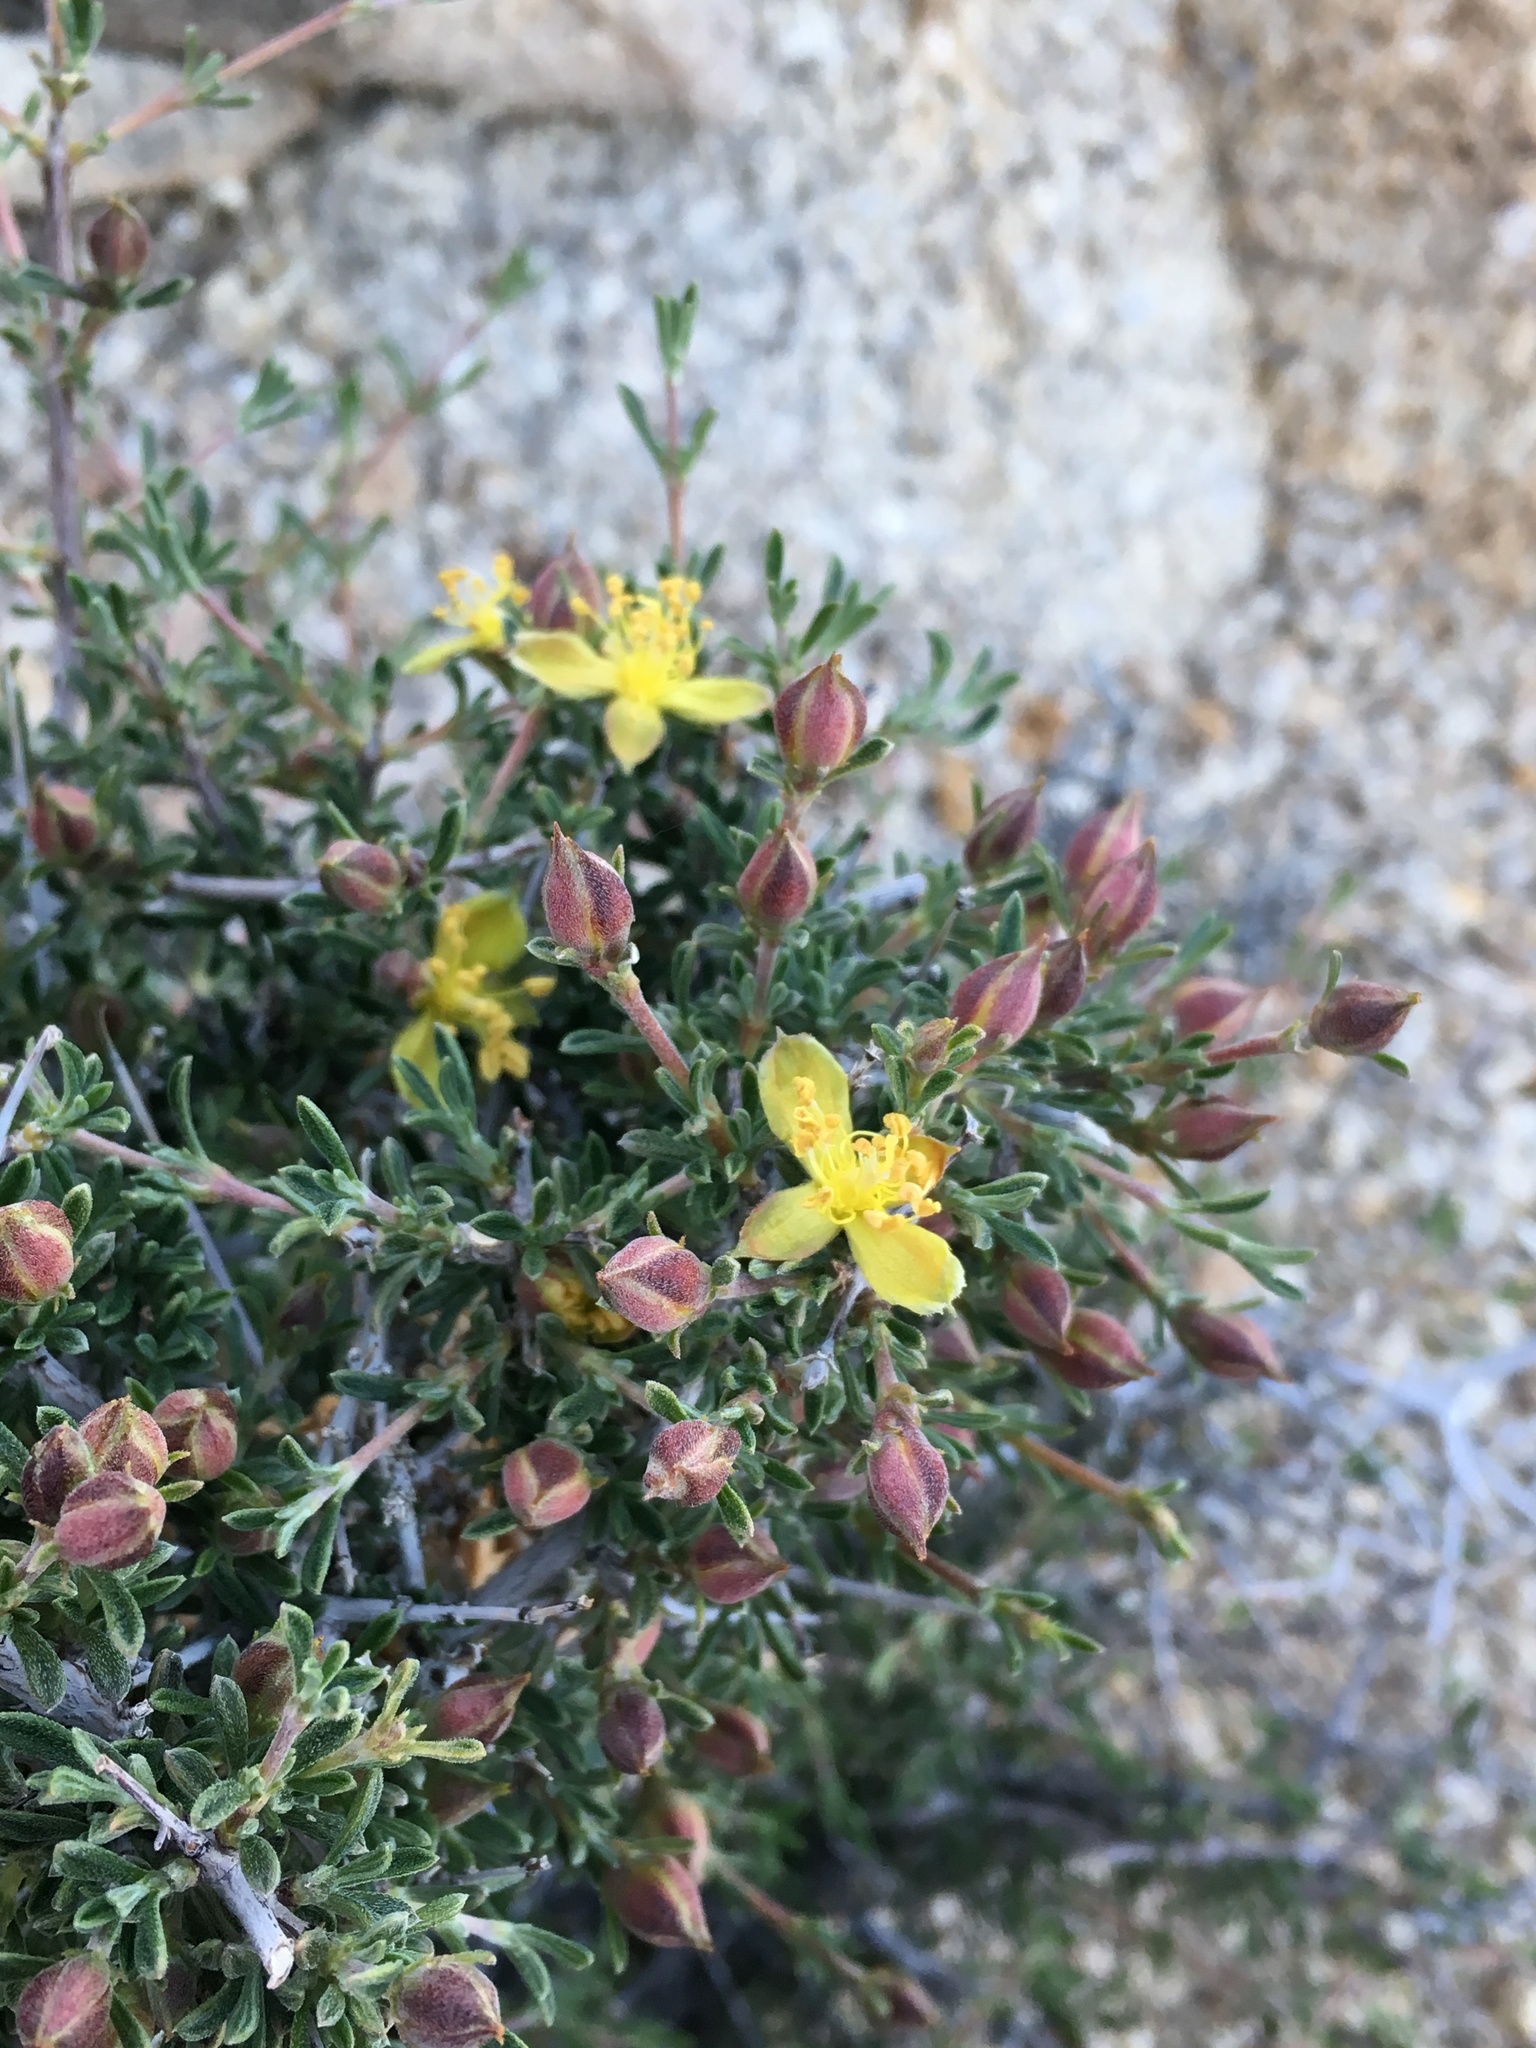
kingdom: Plantae
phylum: Tracheophyta
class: Magnoliopsida
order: Rosales
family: Rosaceae
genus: Coleogyne
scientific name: Coleogyne ramosissima
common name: Blackbrush
